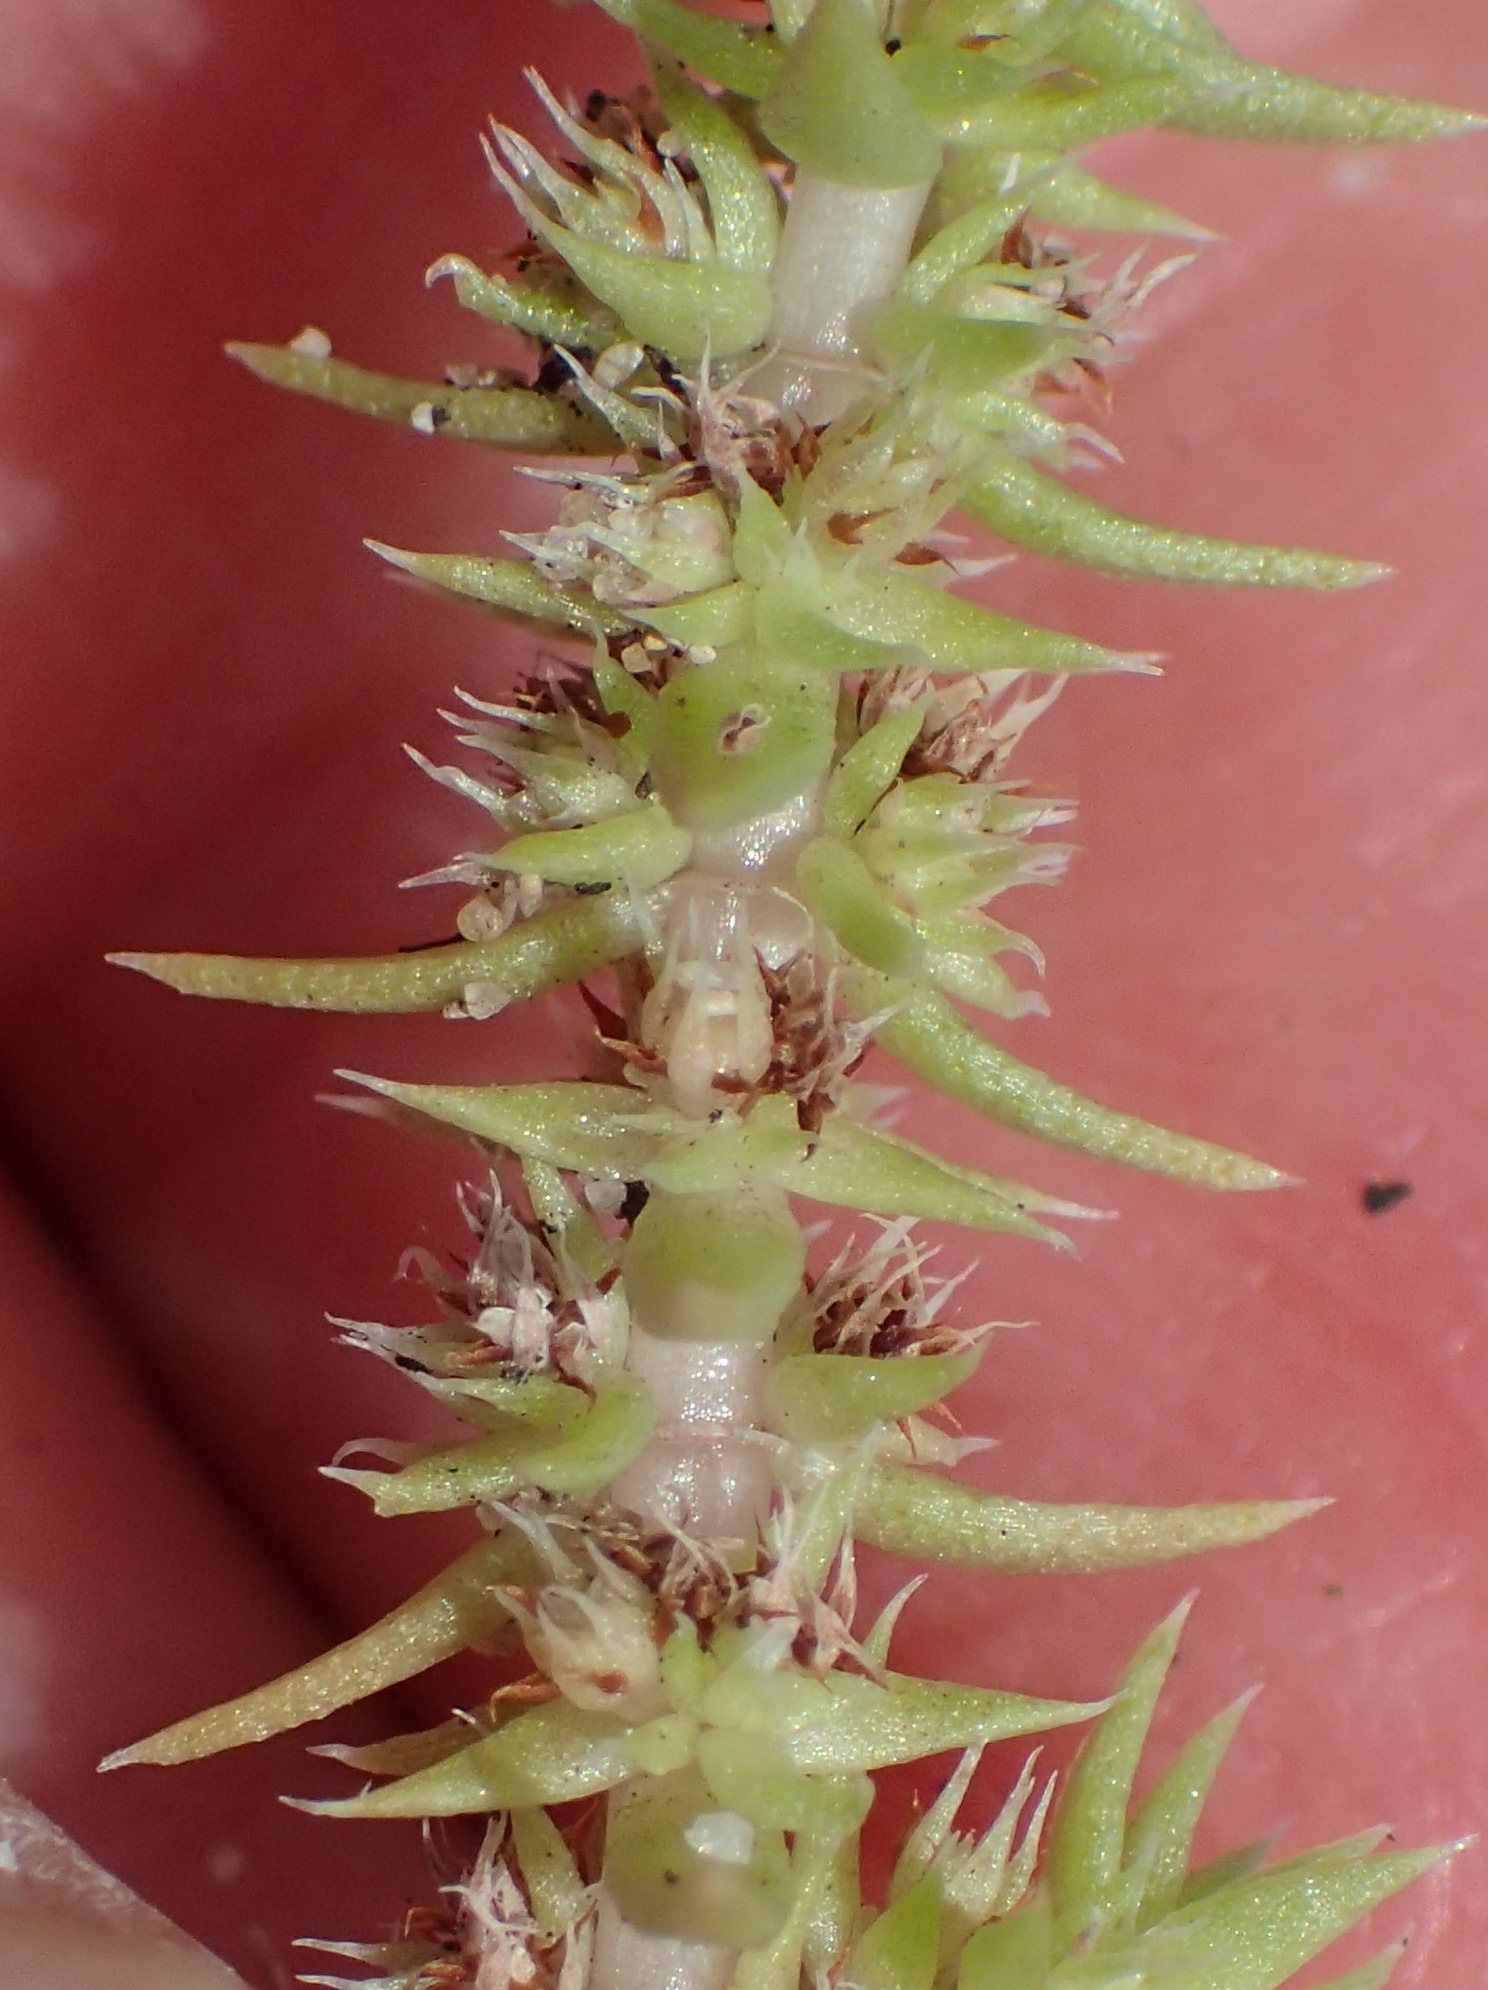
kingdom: Plantae
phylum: Tracheophyta
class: Magnoliopsida
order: Saxifragales
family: Crassulaceae
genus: Crassula
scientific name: Crassula campestris
